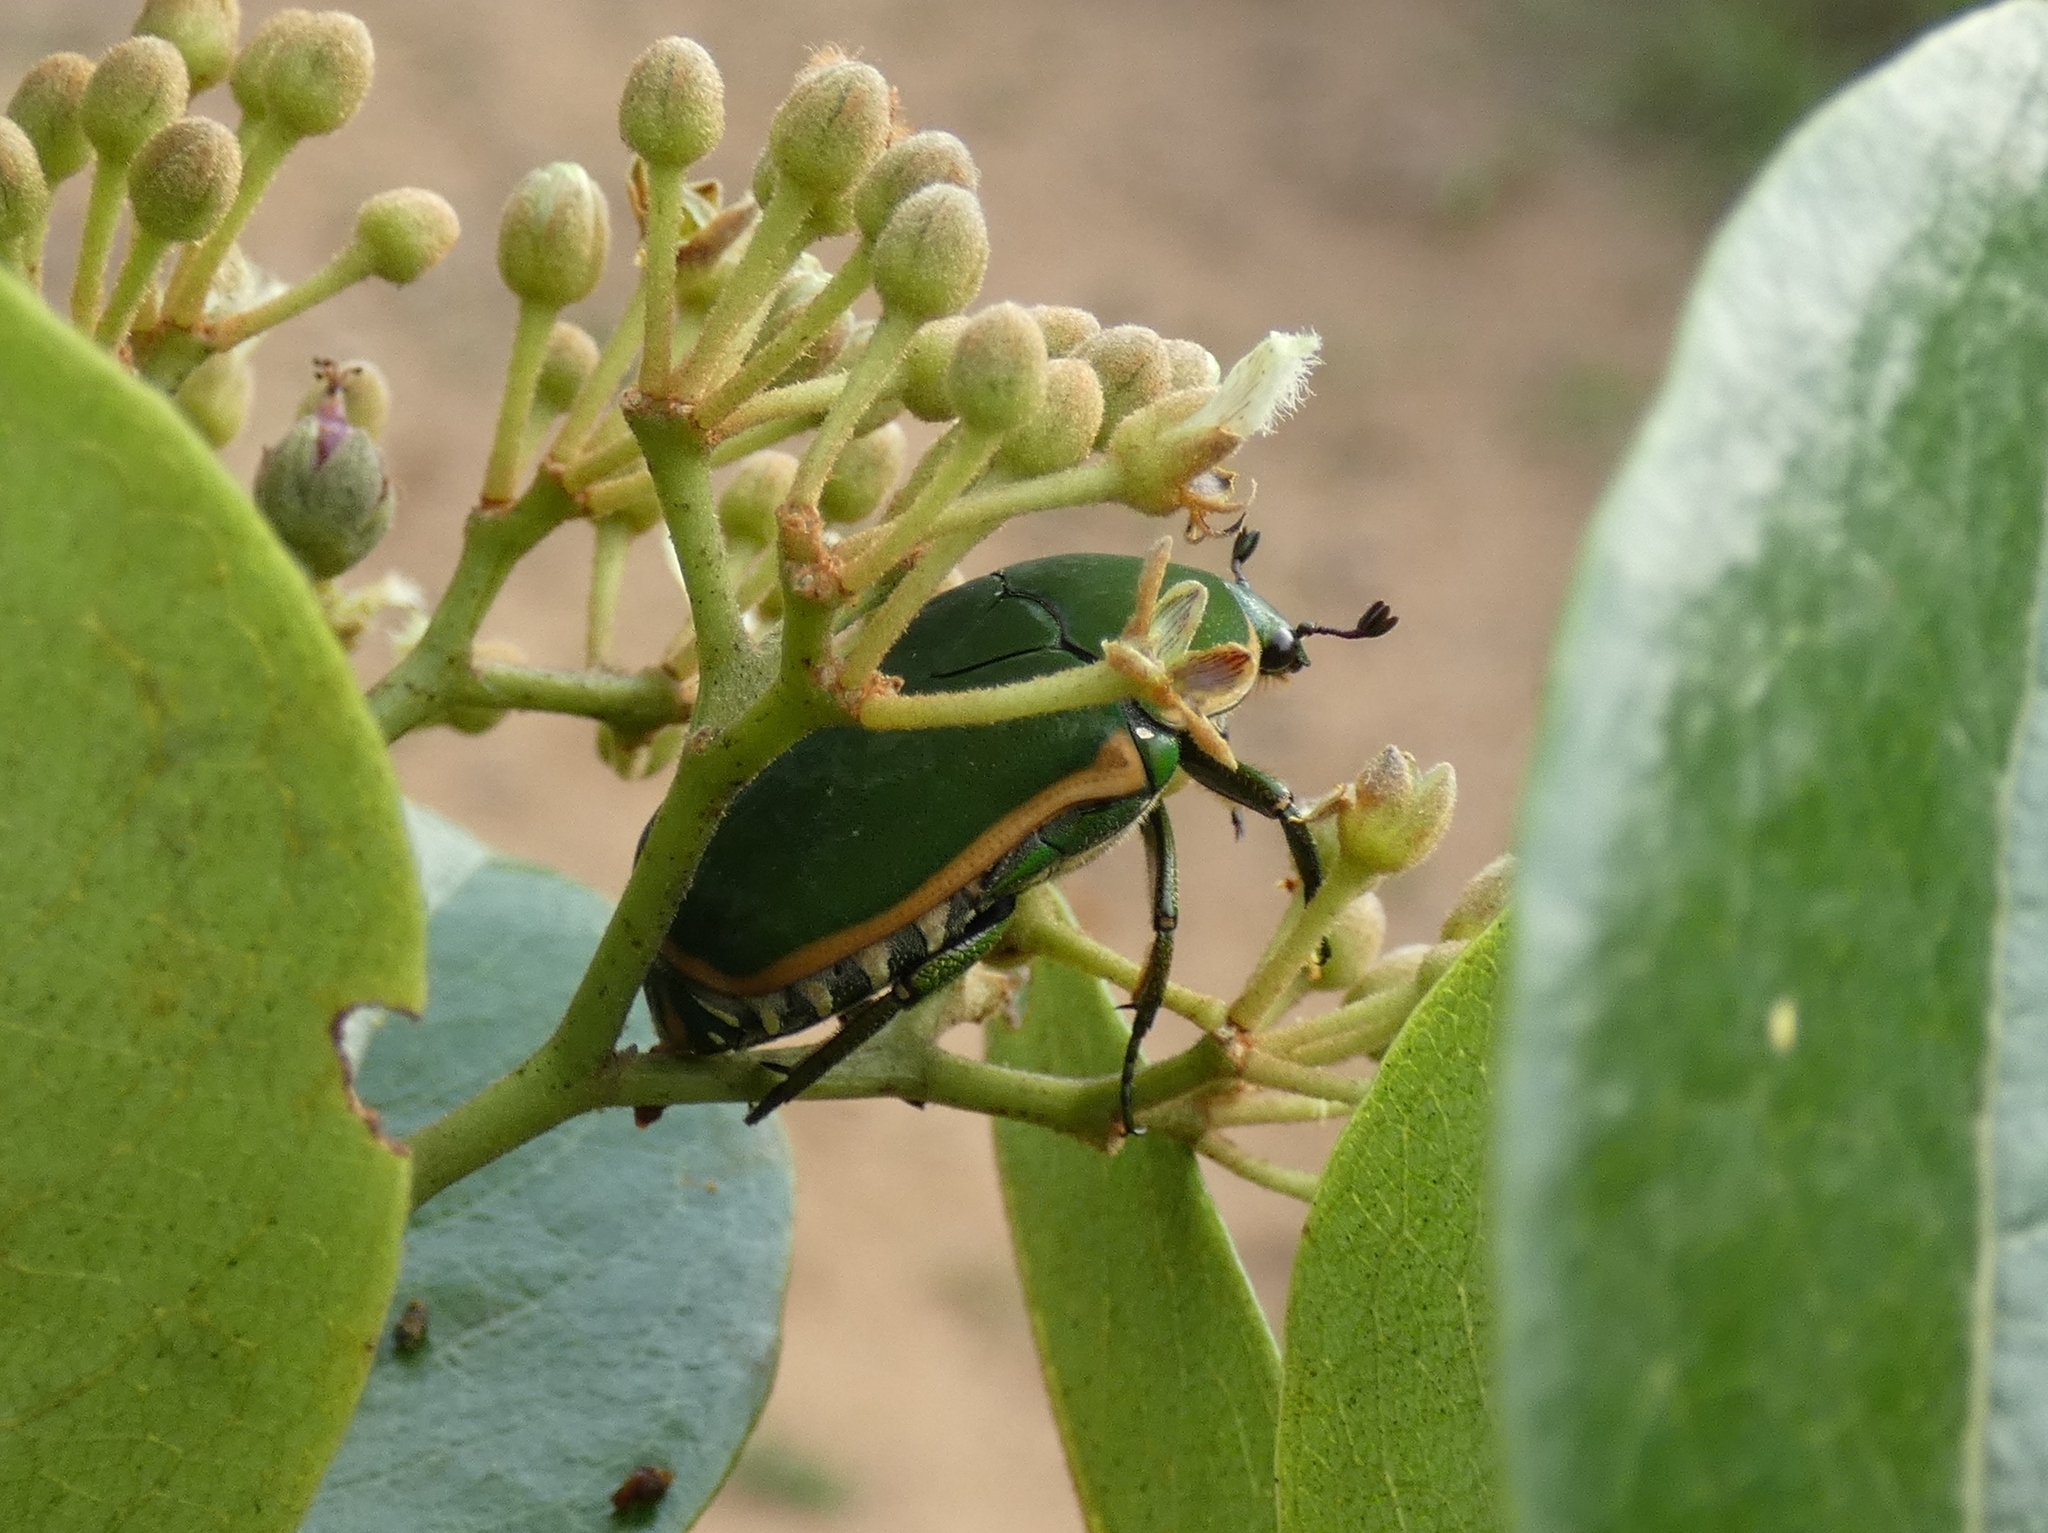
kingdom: Animalia
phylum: Arthropoda
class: Insecta
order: Coleoptera
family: Scarabaeidae
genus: Marmylida
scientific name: Marmylida Pachnodella marginella
